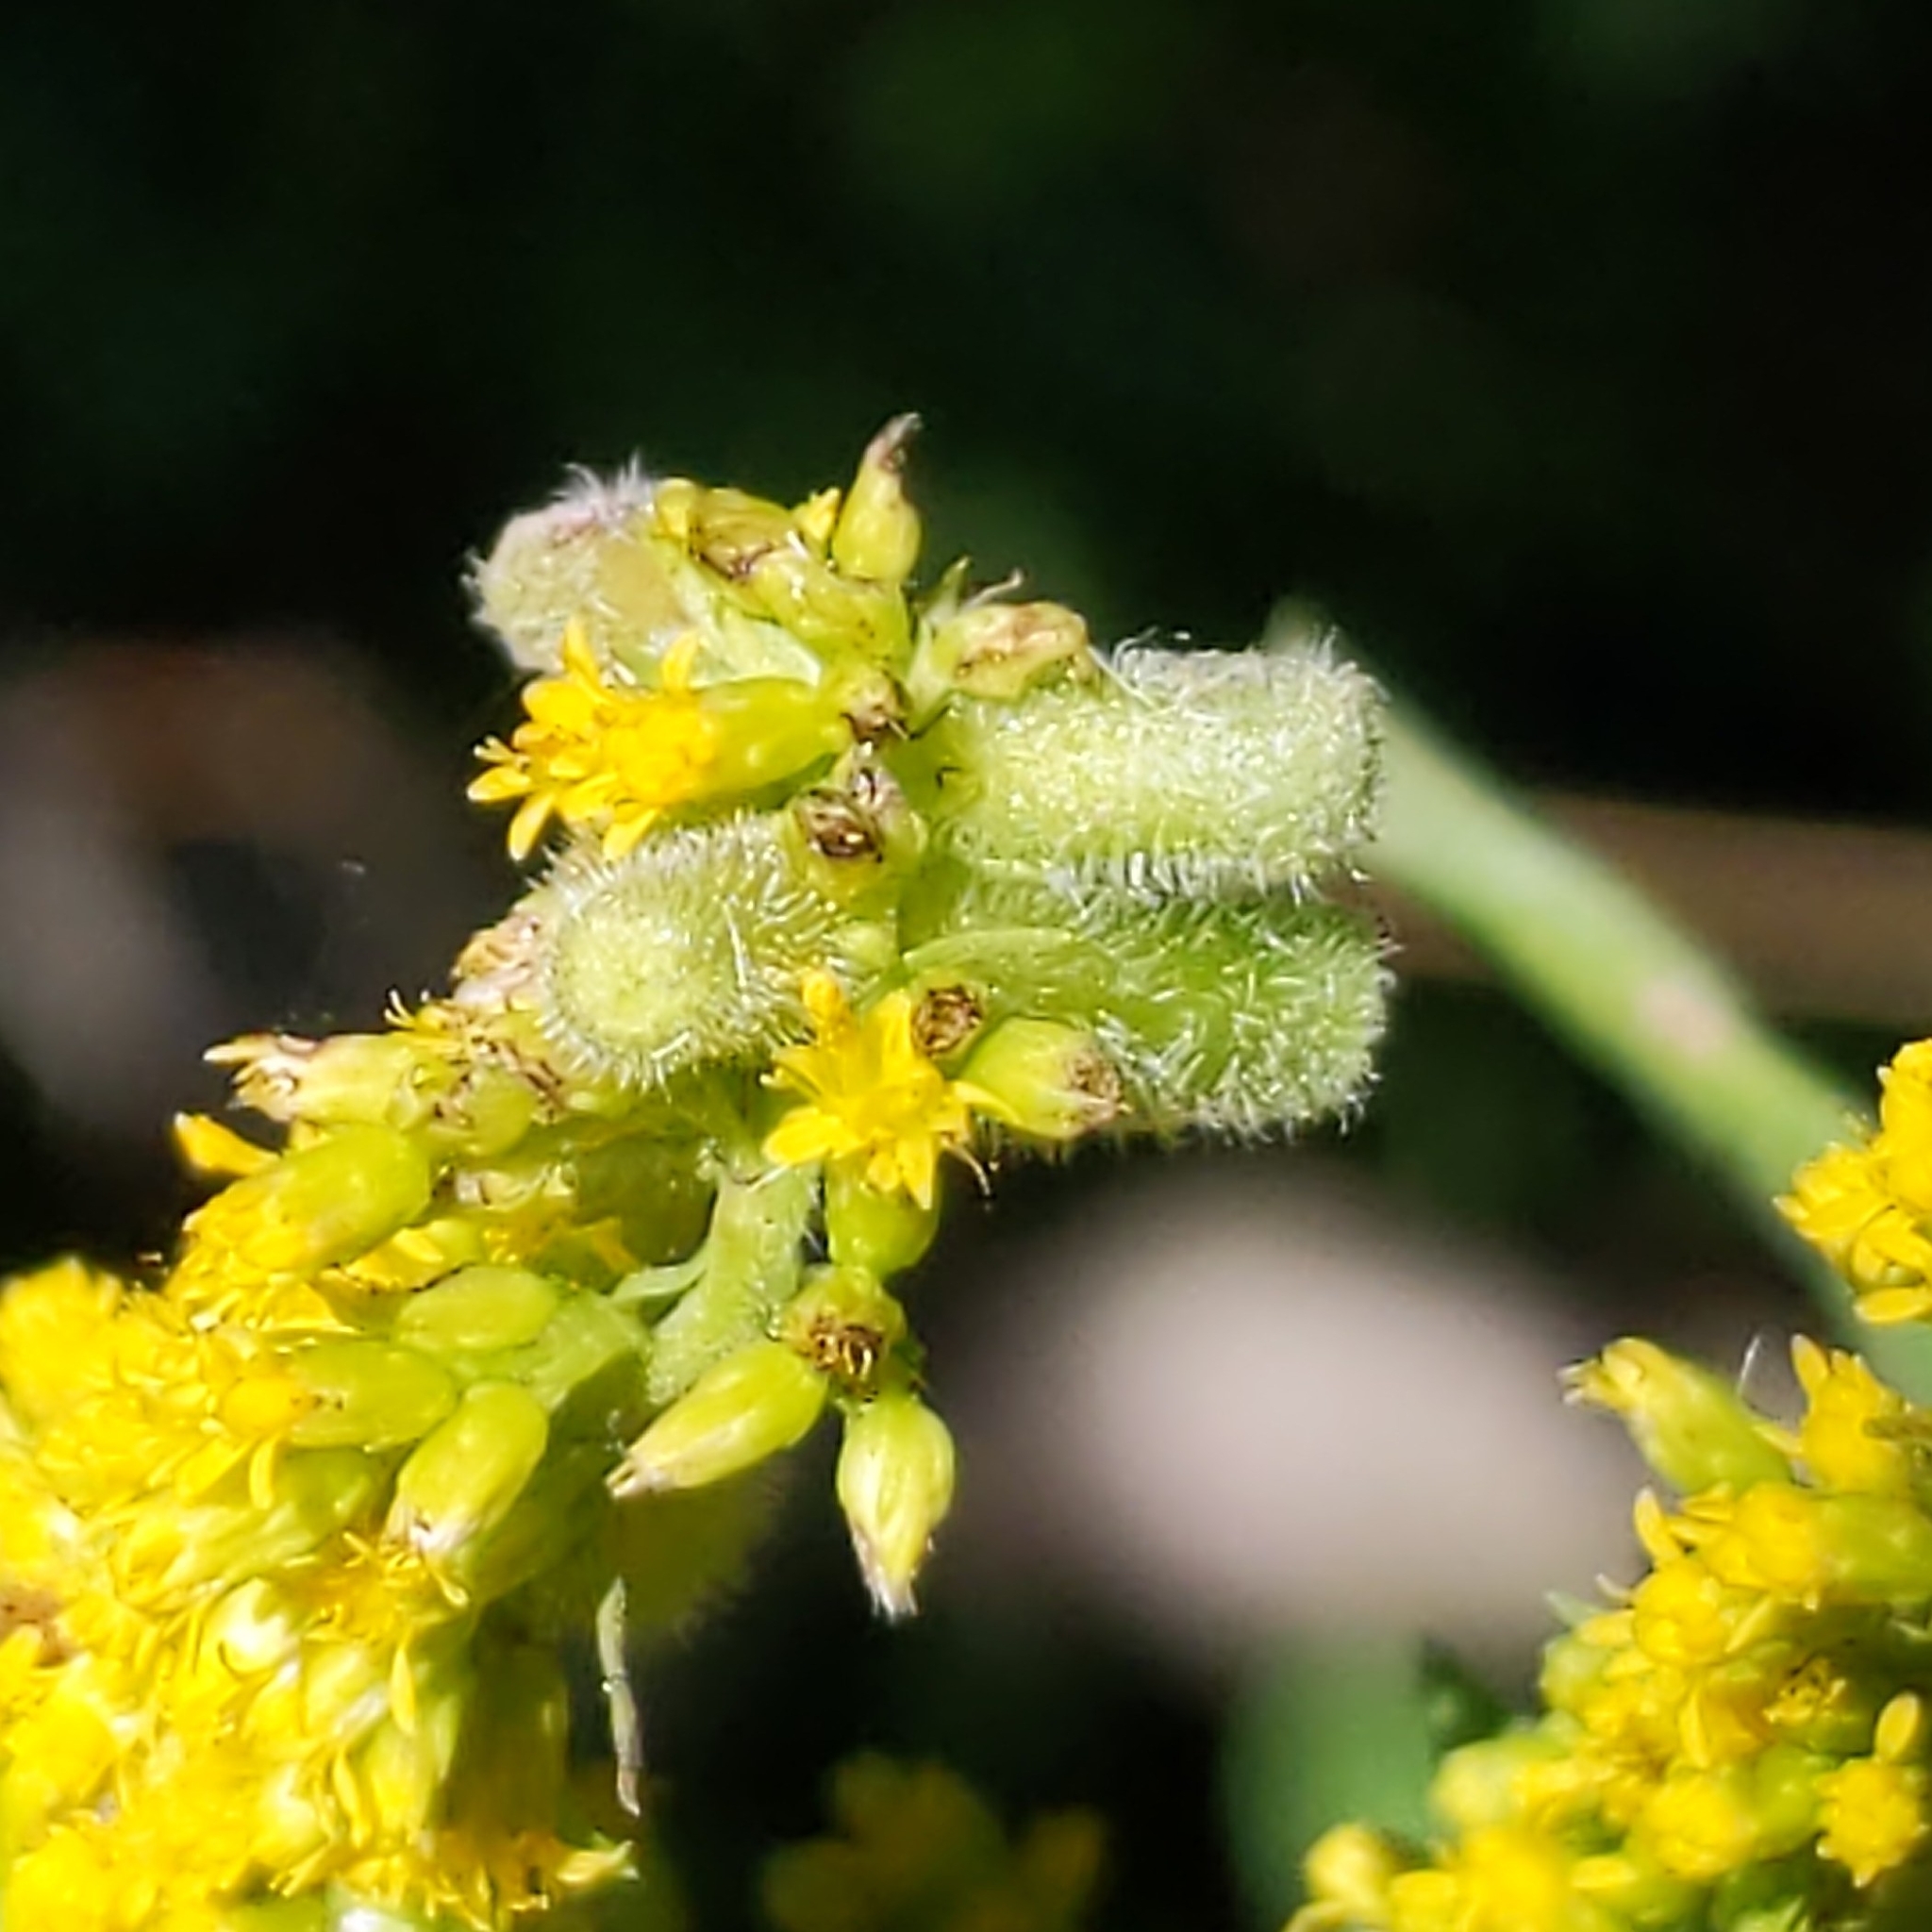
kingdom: Animalia
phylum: Arthropoda
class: Insecta
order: Diptera
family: Cecidomyiidae
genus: Rhopalomyia
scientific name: Rhopalomyia anthophila
